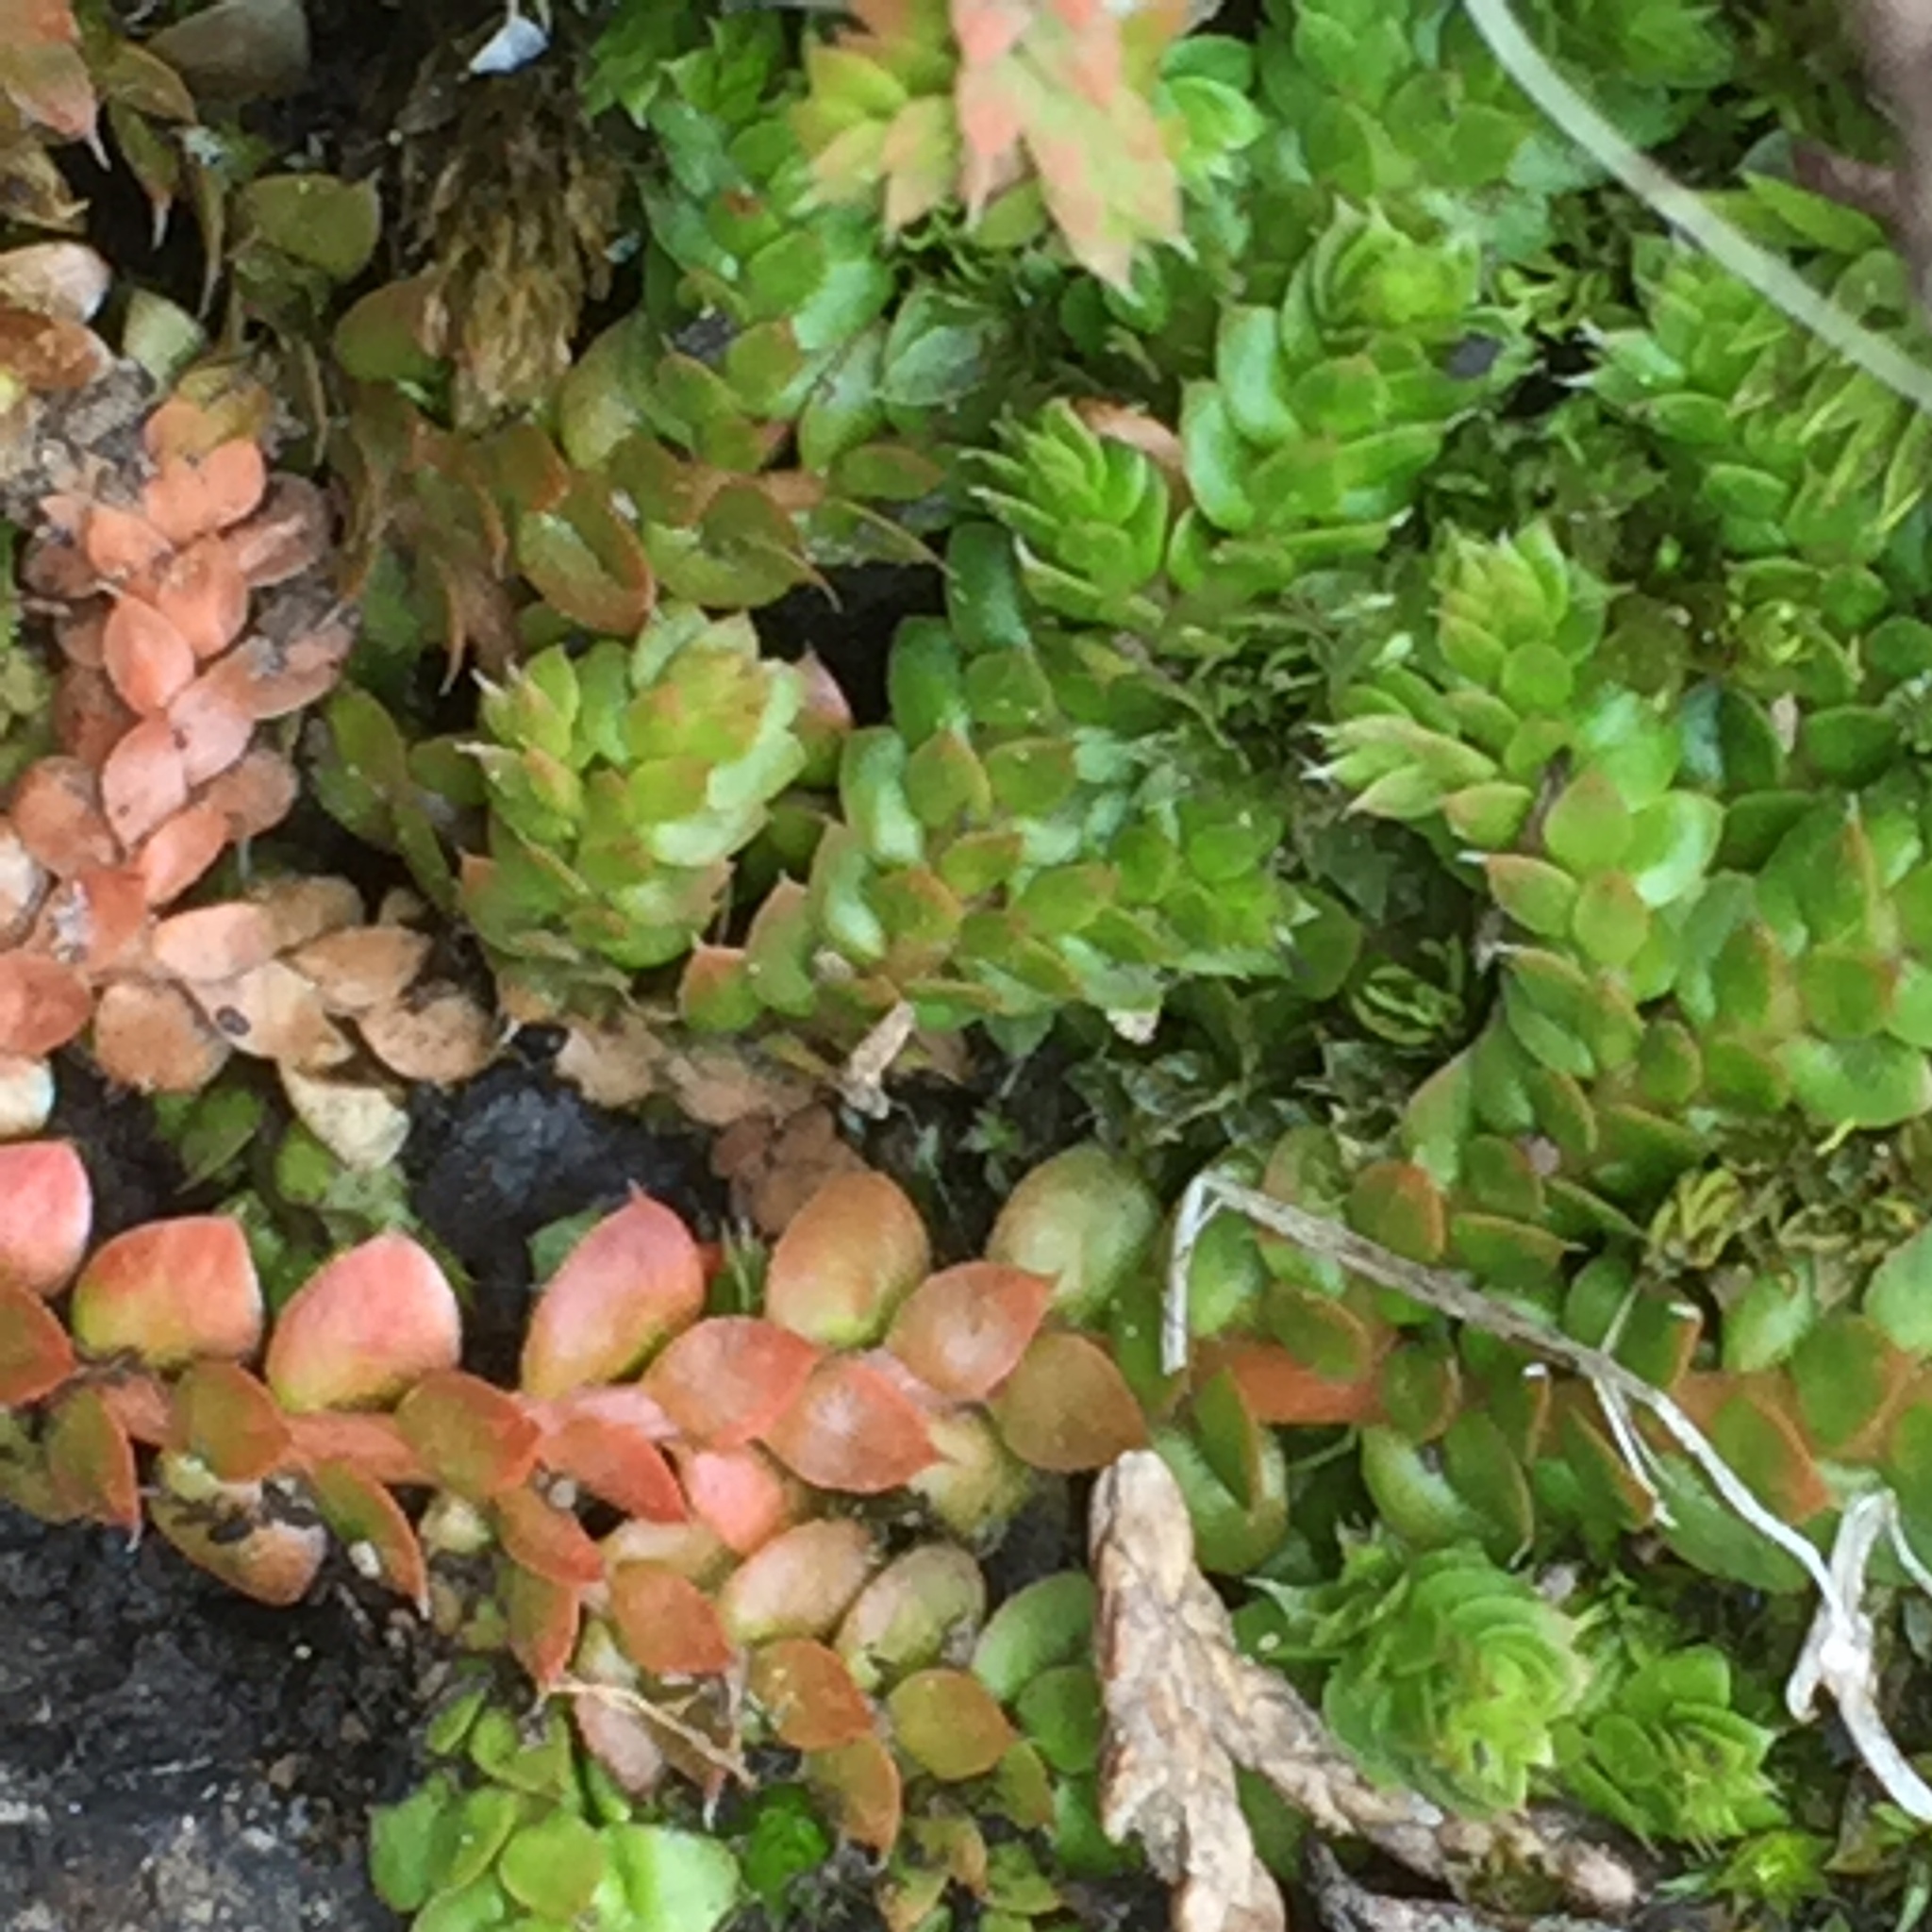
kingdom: Plantae
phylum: Tracheophyta
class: Lycopodiopsida
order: Selaginellales
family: Selaginellaceae
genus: Selaginella
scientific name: Selaginella denticulata
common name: Toothed-leaved clubmoss
